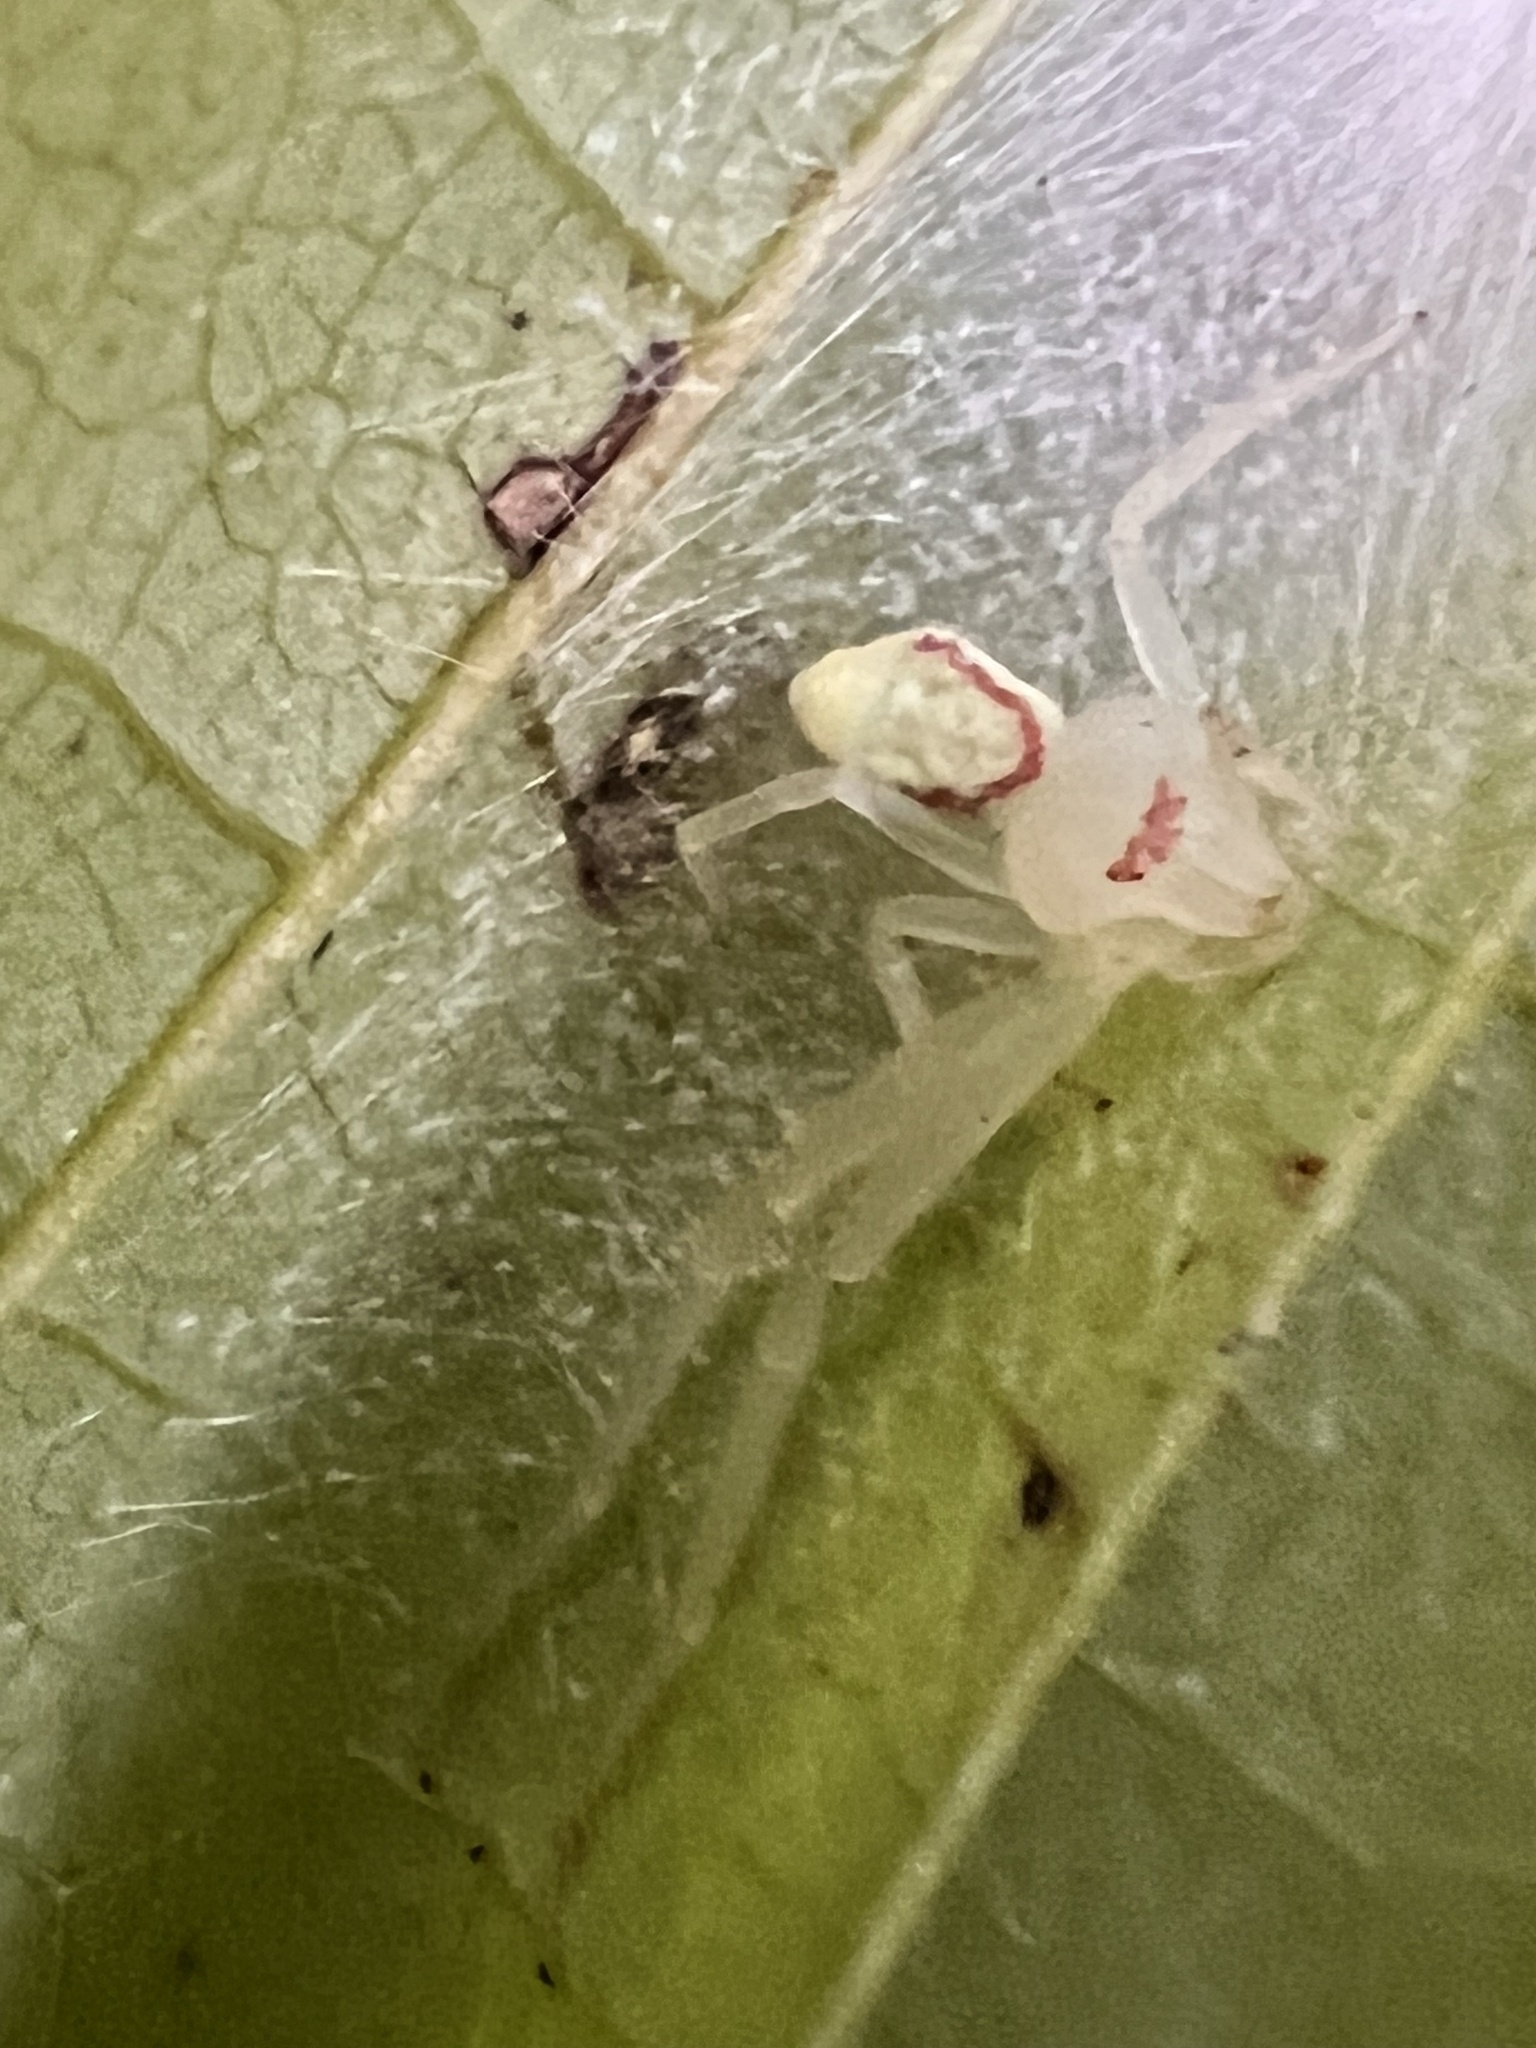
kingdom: Animalia
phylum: Arthropoda
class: Arachnida
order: Araneae
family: Thomisidae
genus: Misumessus
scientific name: Misumessus oblongus
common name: American green crab spider
